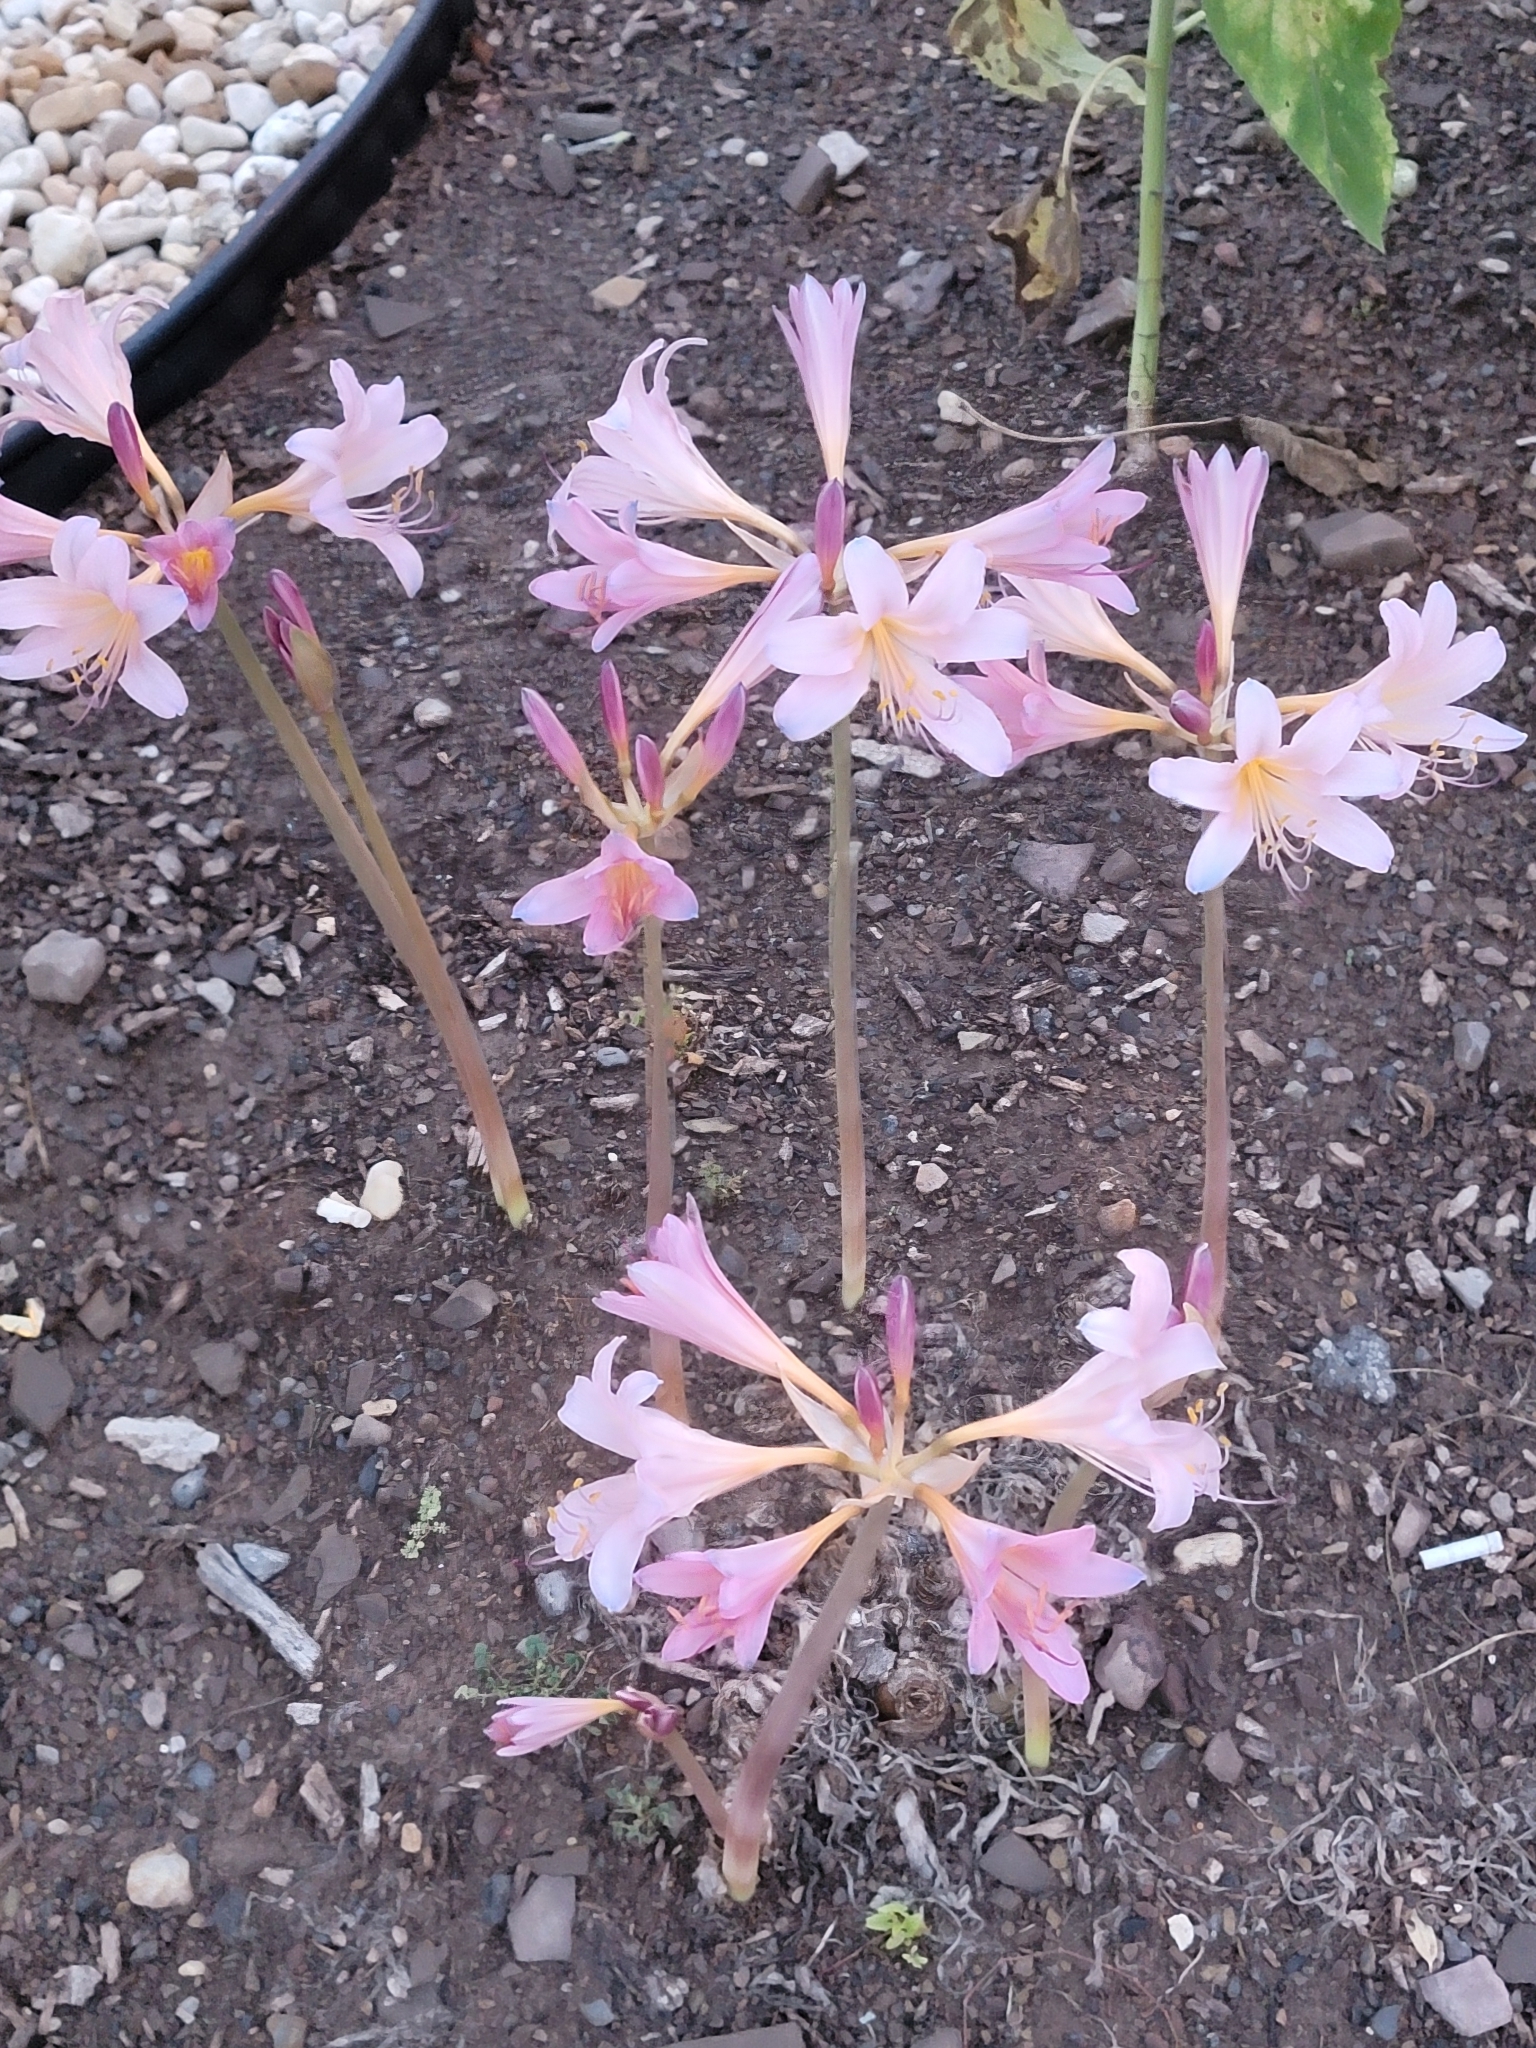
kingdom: Plantae
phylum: Tracheophyta
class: Liliopsida
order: Asparagales
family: Amaryllidaceae
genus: Lycoris
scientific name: Lycoris squamigera
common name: Magic-lily
